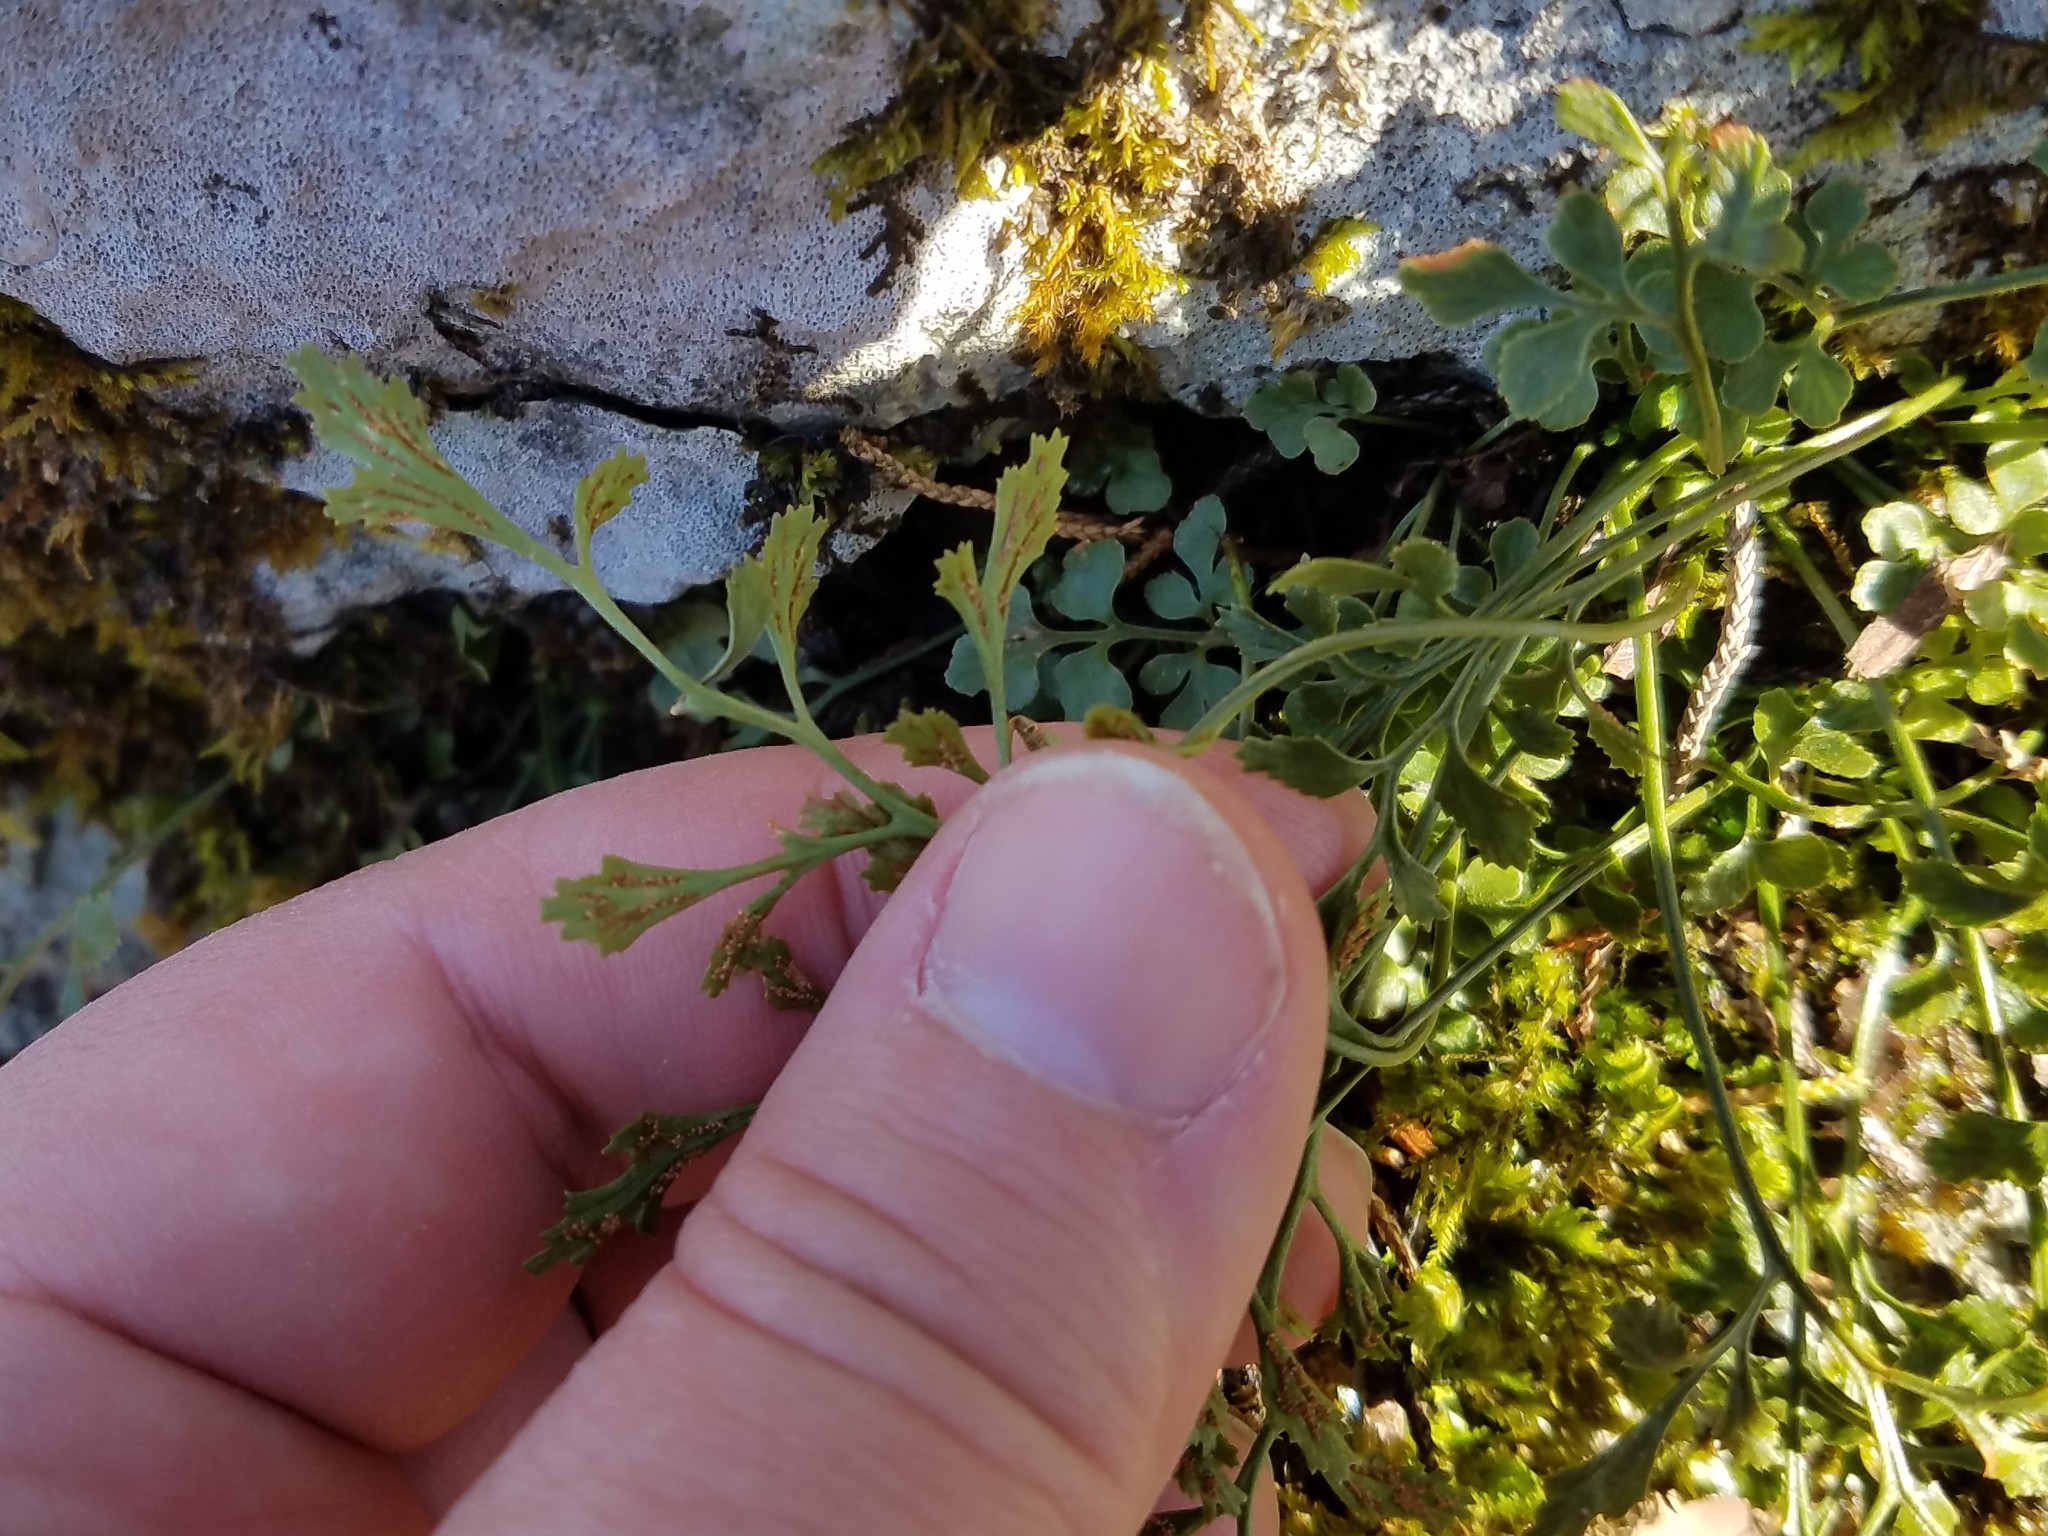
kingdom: Plantae
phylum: Tracheophyta
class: Polypodiopsida
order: Polypodiales
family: Aspleniaceae
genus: Asplenium
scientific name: Asplenium ruta-muraria
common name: Wall-rue
